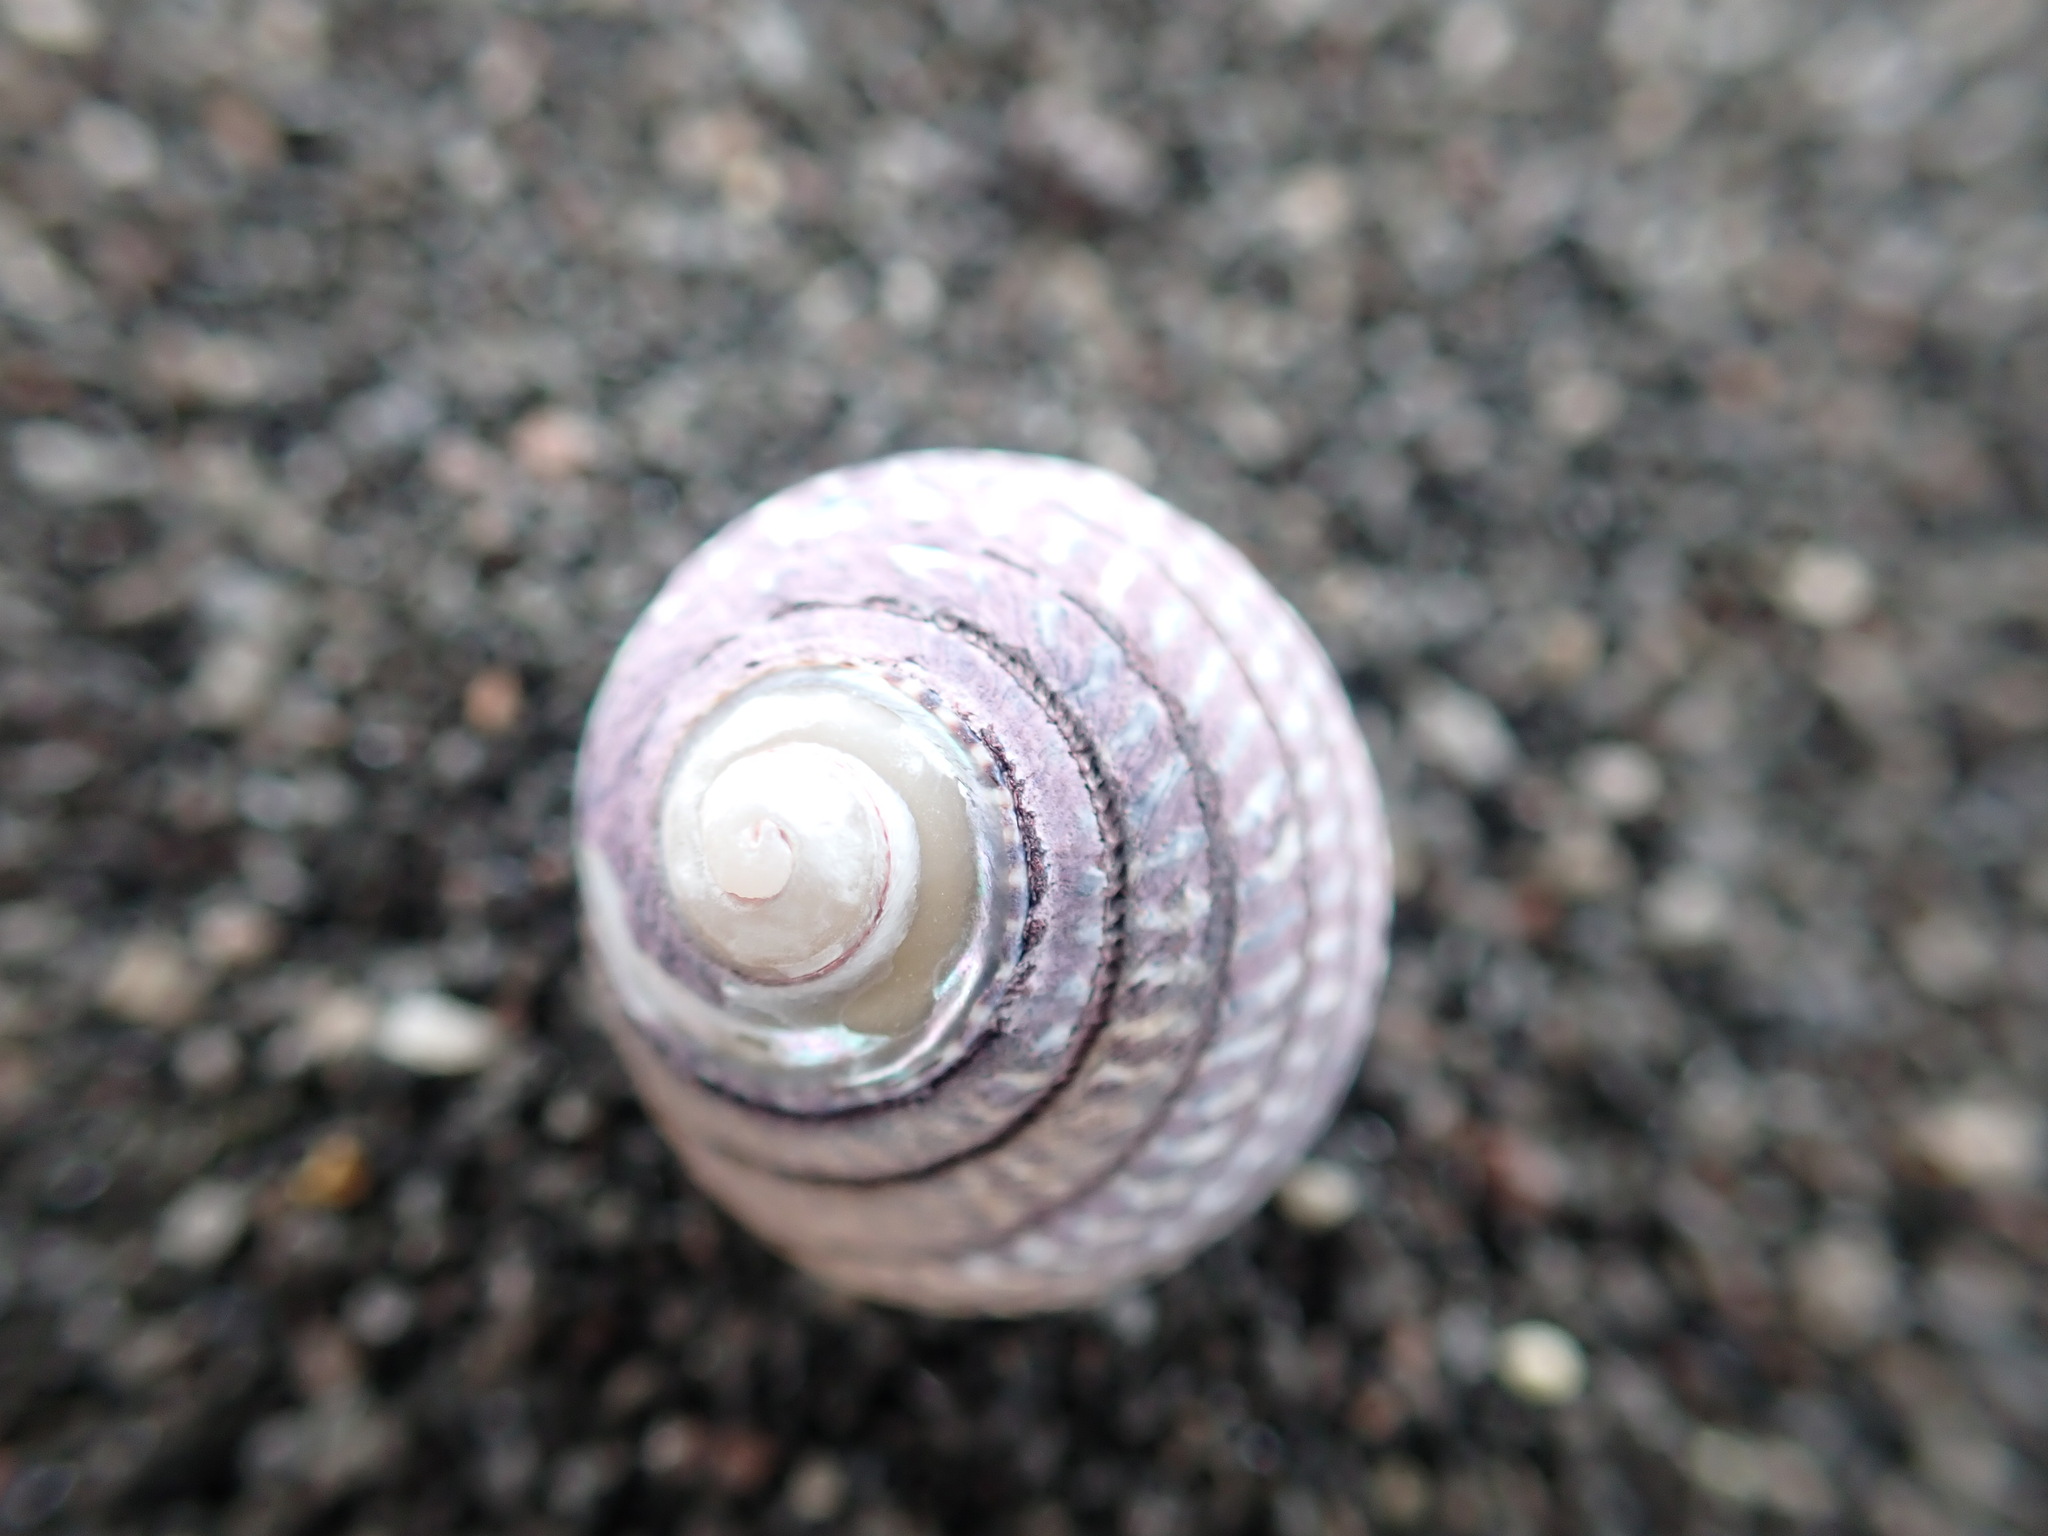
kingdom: Animalia
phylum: Mollusca
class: Gastropoda
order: Trochida
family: Trochidae
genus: Diloma
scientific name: Diloma aethiops
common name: Scorched monodont
